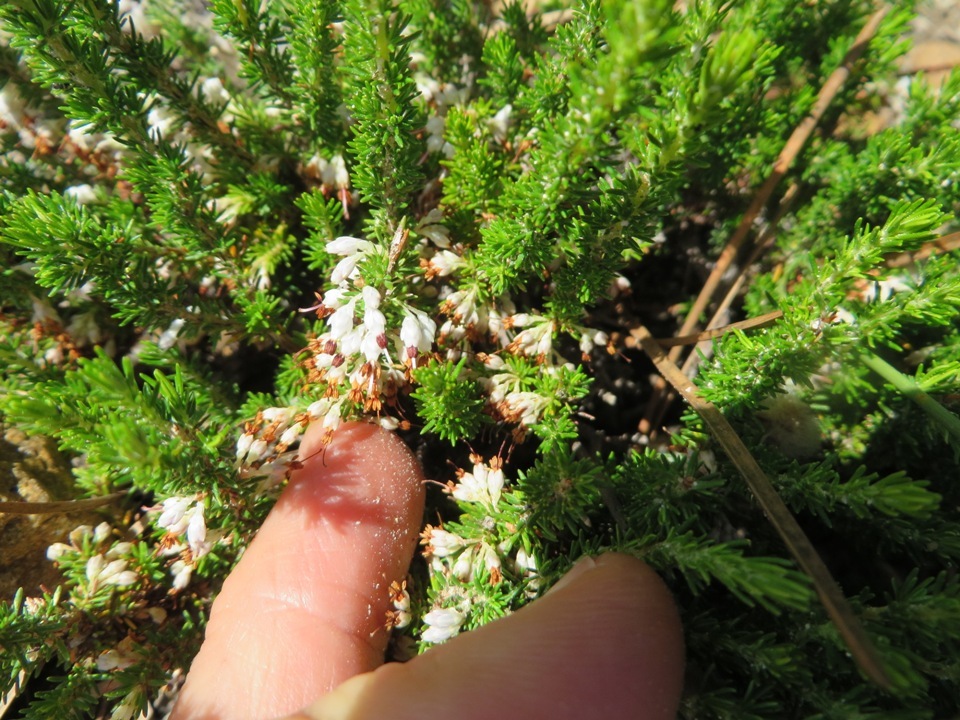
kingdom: Plantae
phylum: Tracheophyta
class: Magnoliopsida
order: Ericales
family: Ericaceae
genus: Erica
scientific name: Erica imbricata
